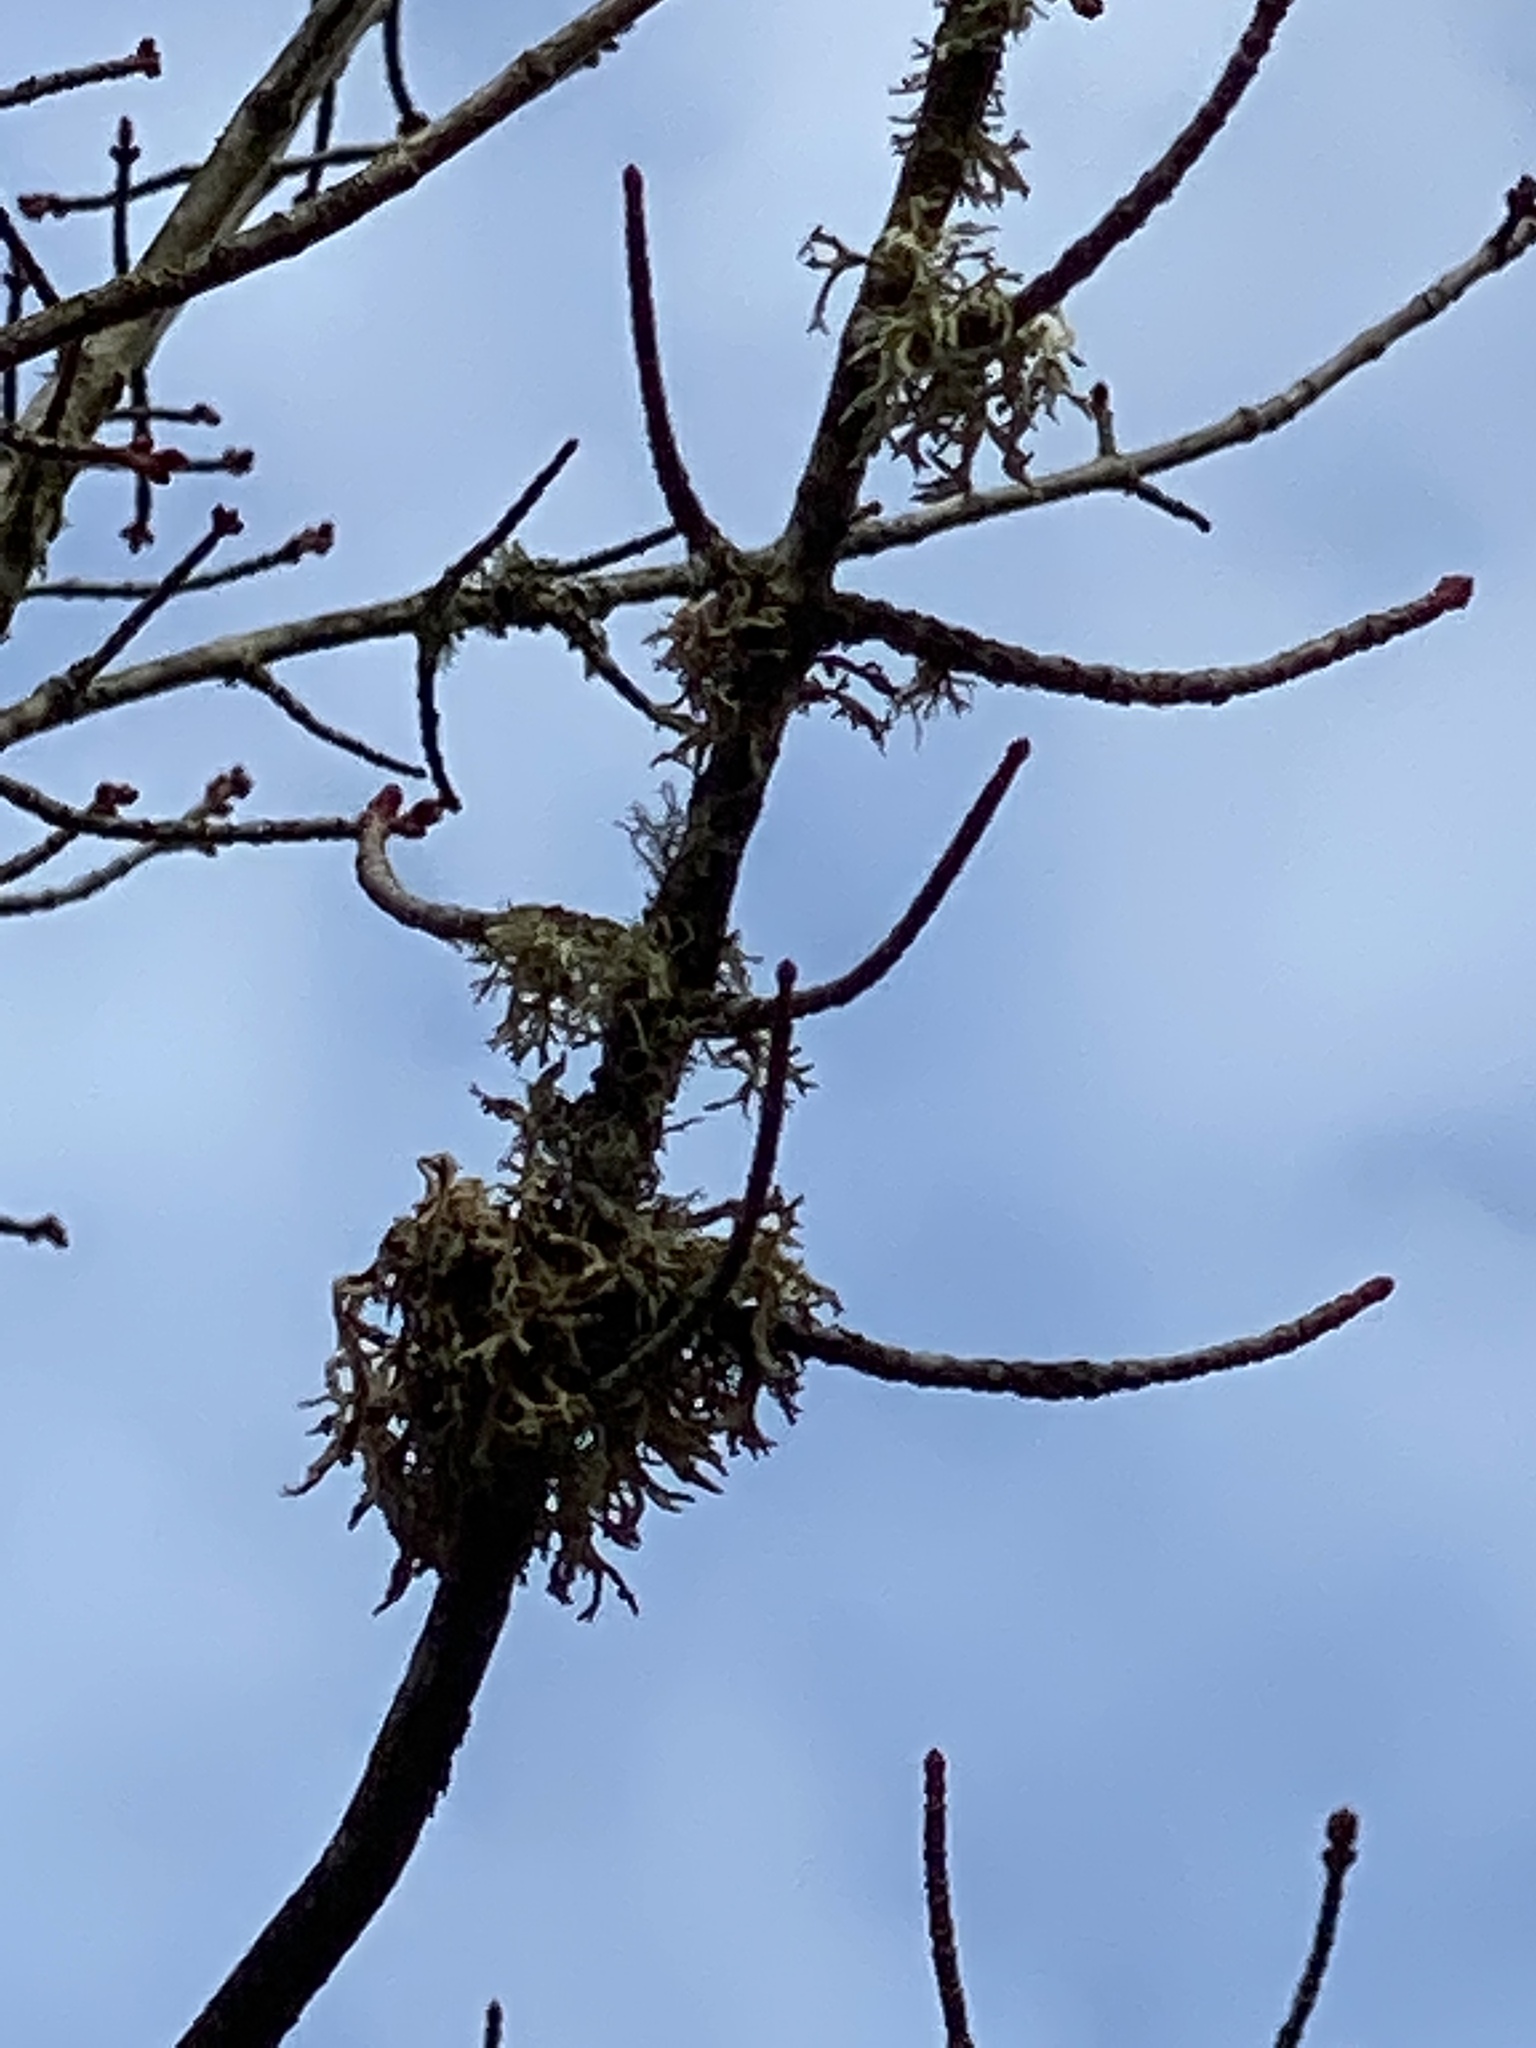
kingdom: Fungi
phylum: Ascomycota
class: Lecanoromycetes
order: Lecanorales
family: Parmeliaceae
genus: Evernia
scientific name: Evernia prunastri
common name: Oak moss
